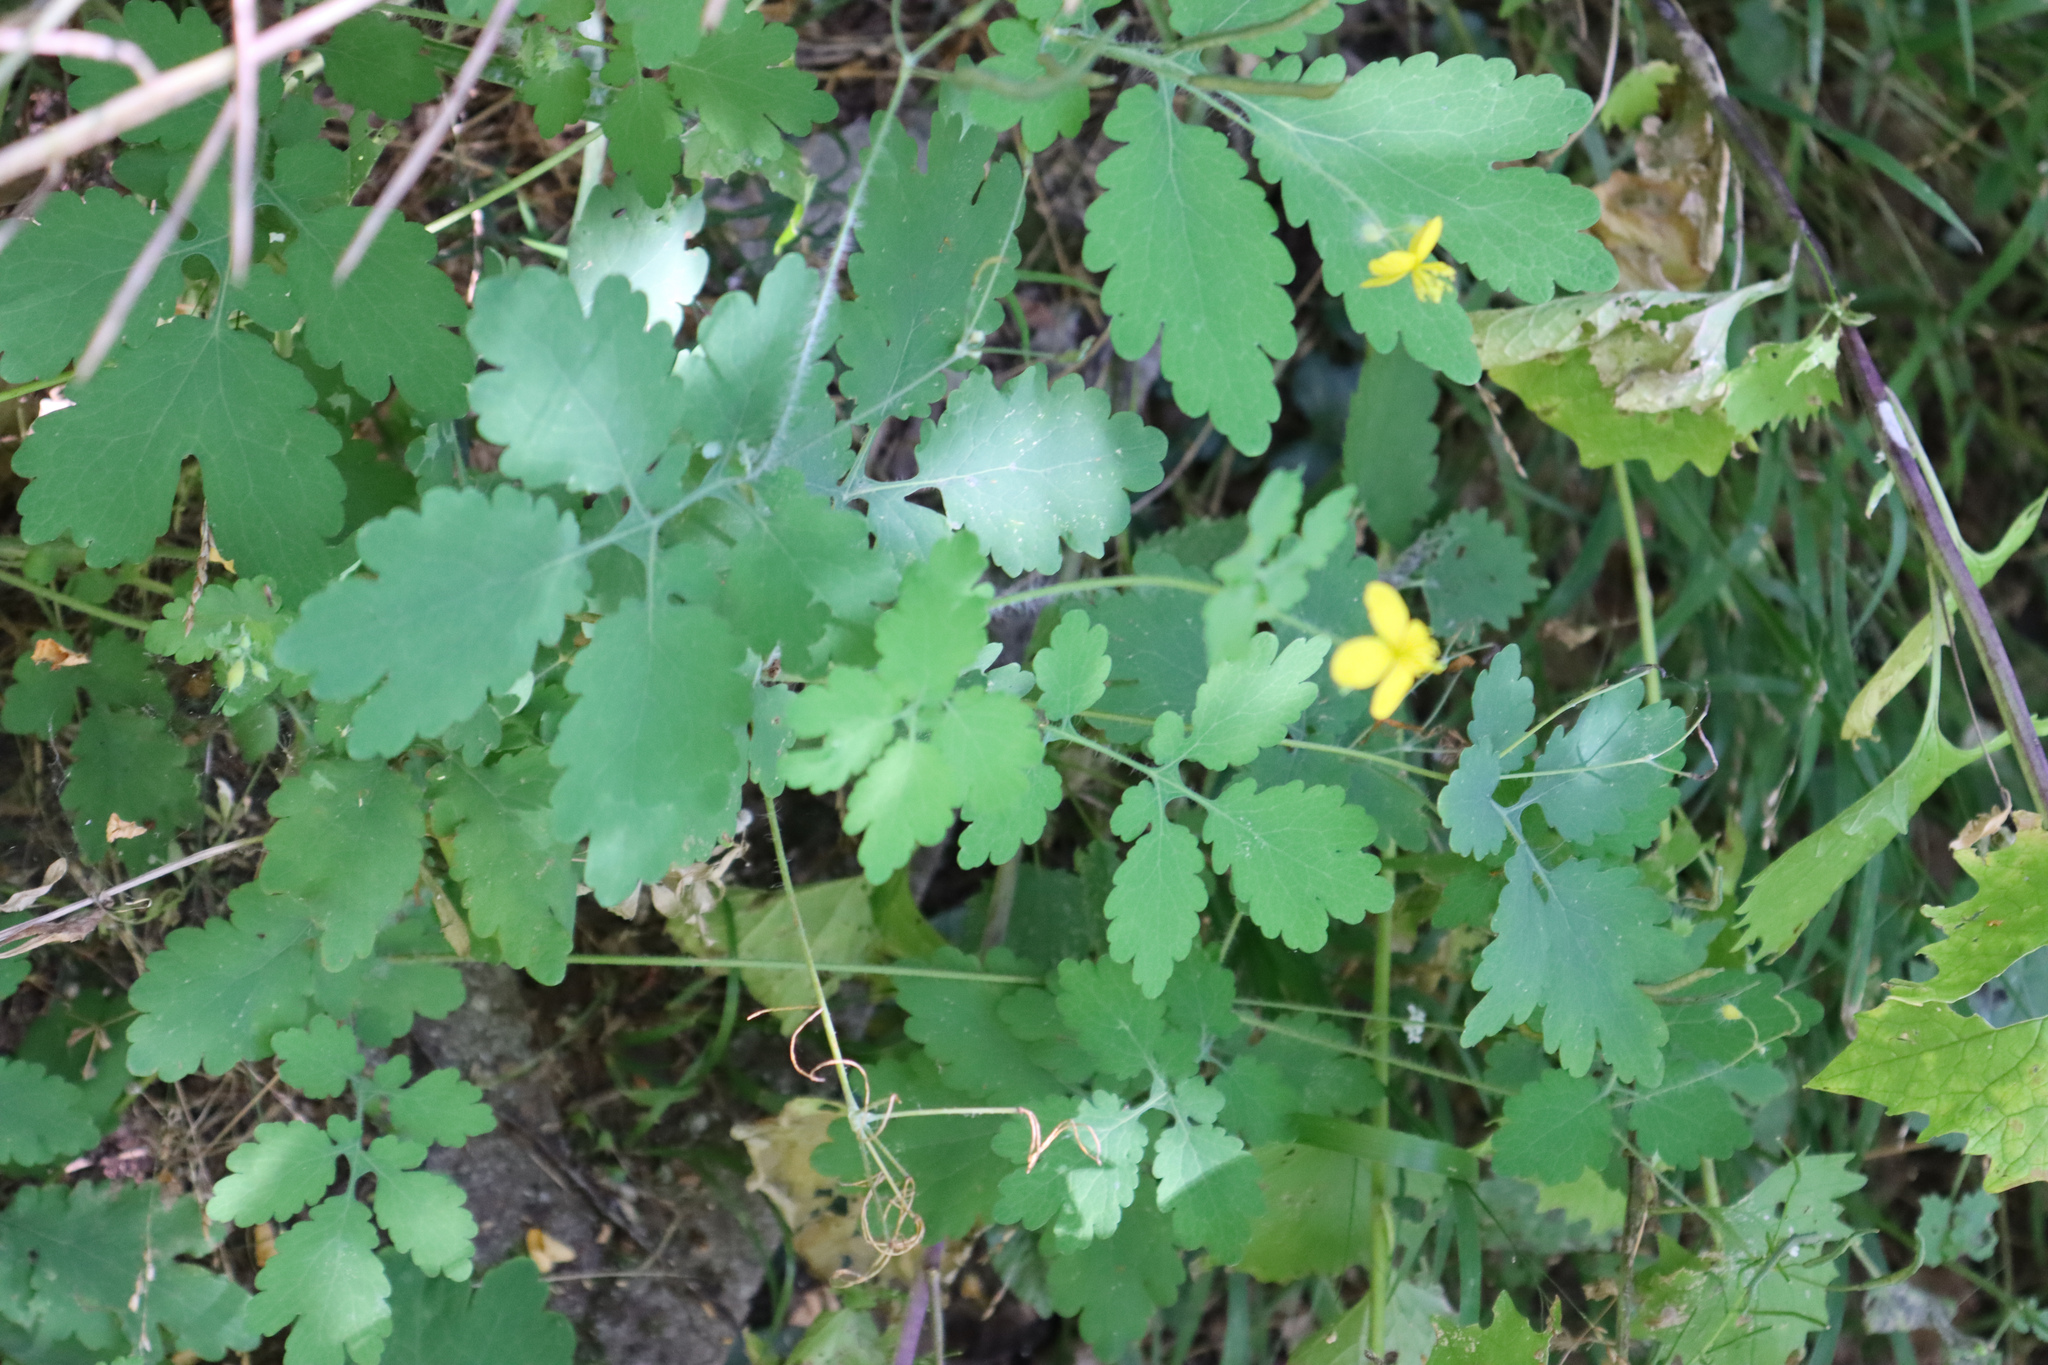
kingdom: Plantae
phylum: Tracheophyta
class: Magnoliopsida
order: Ranunculales
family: Papaveraceae
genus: Chelidonium
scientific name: Chelidonium majus
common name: Greater celandine
